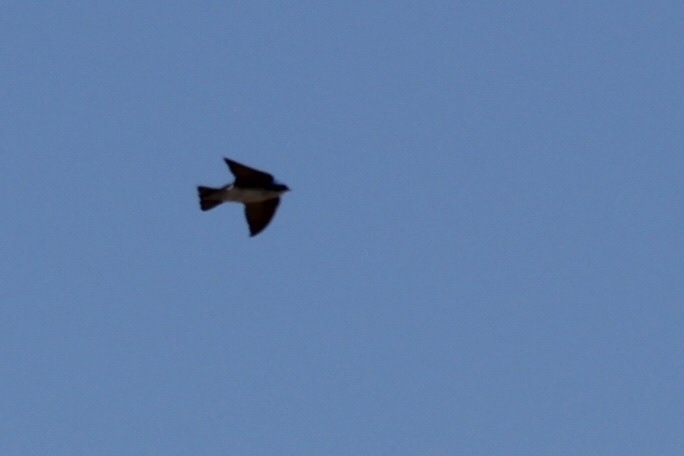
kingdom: Animalia
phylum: Chordata
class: Aves
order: Passeriformes
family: Hirundinidae
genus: Tachycineta
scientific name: Tachycineta bicolor
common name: Tree swallow
